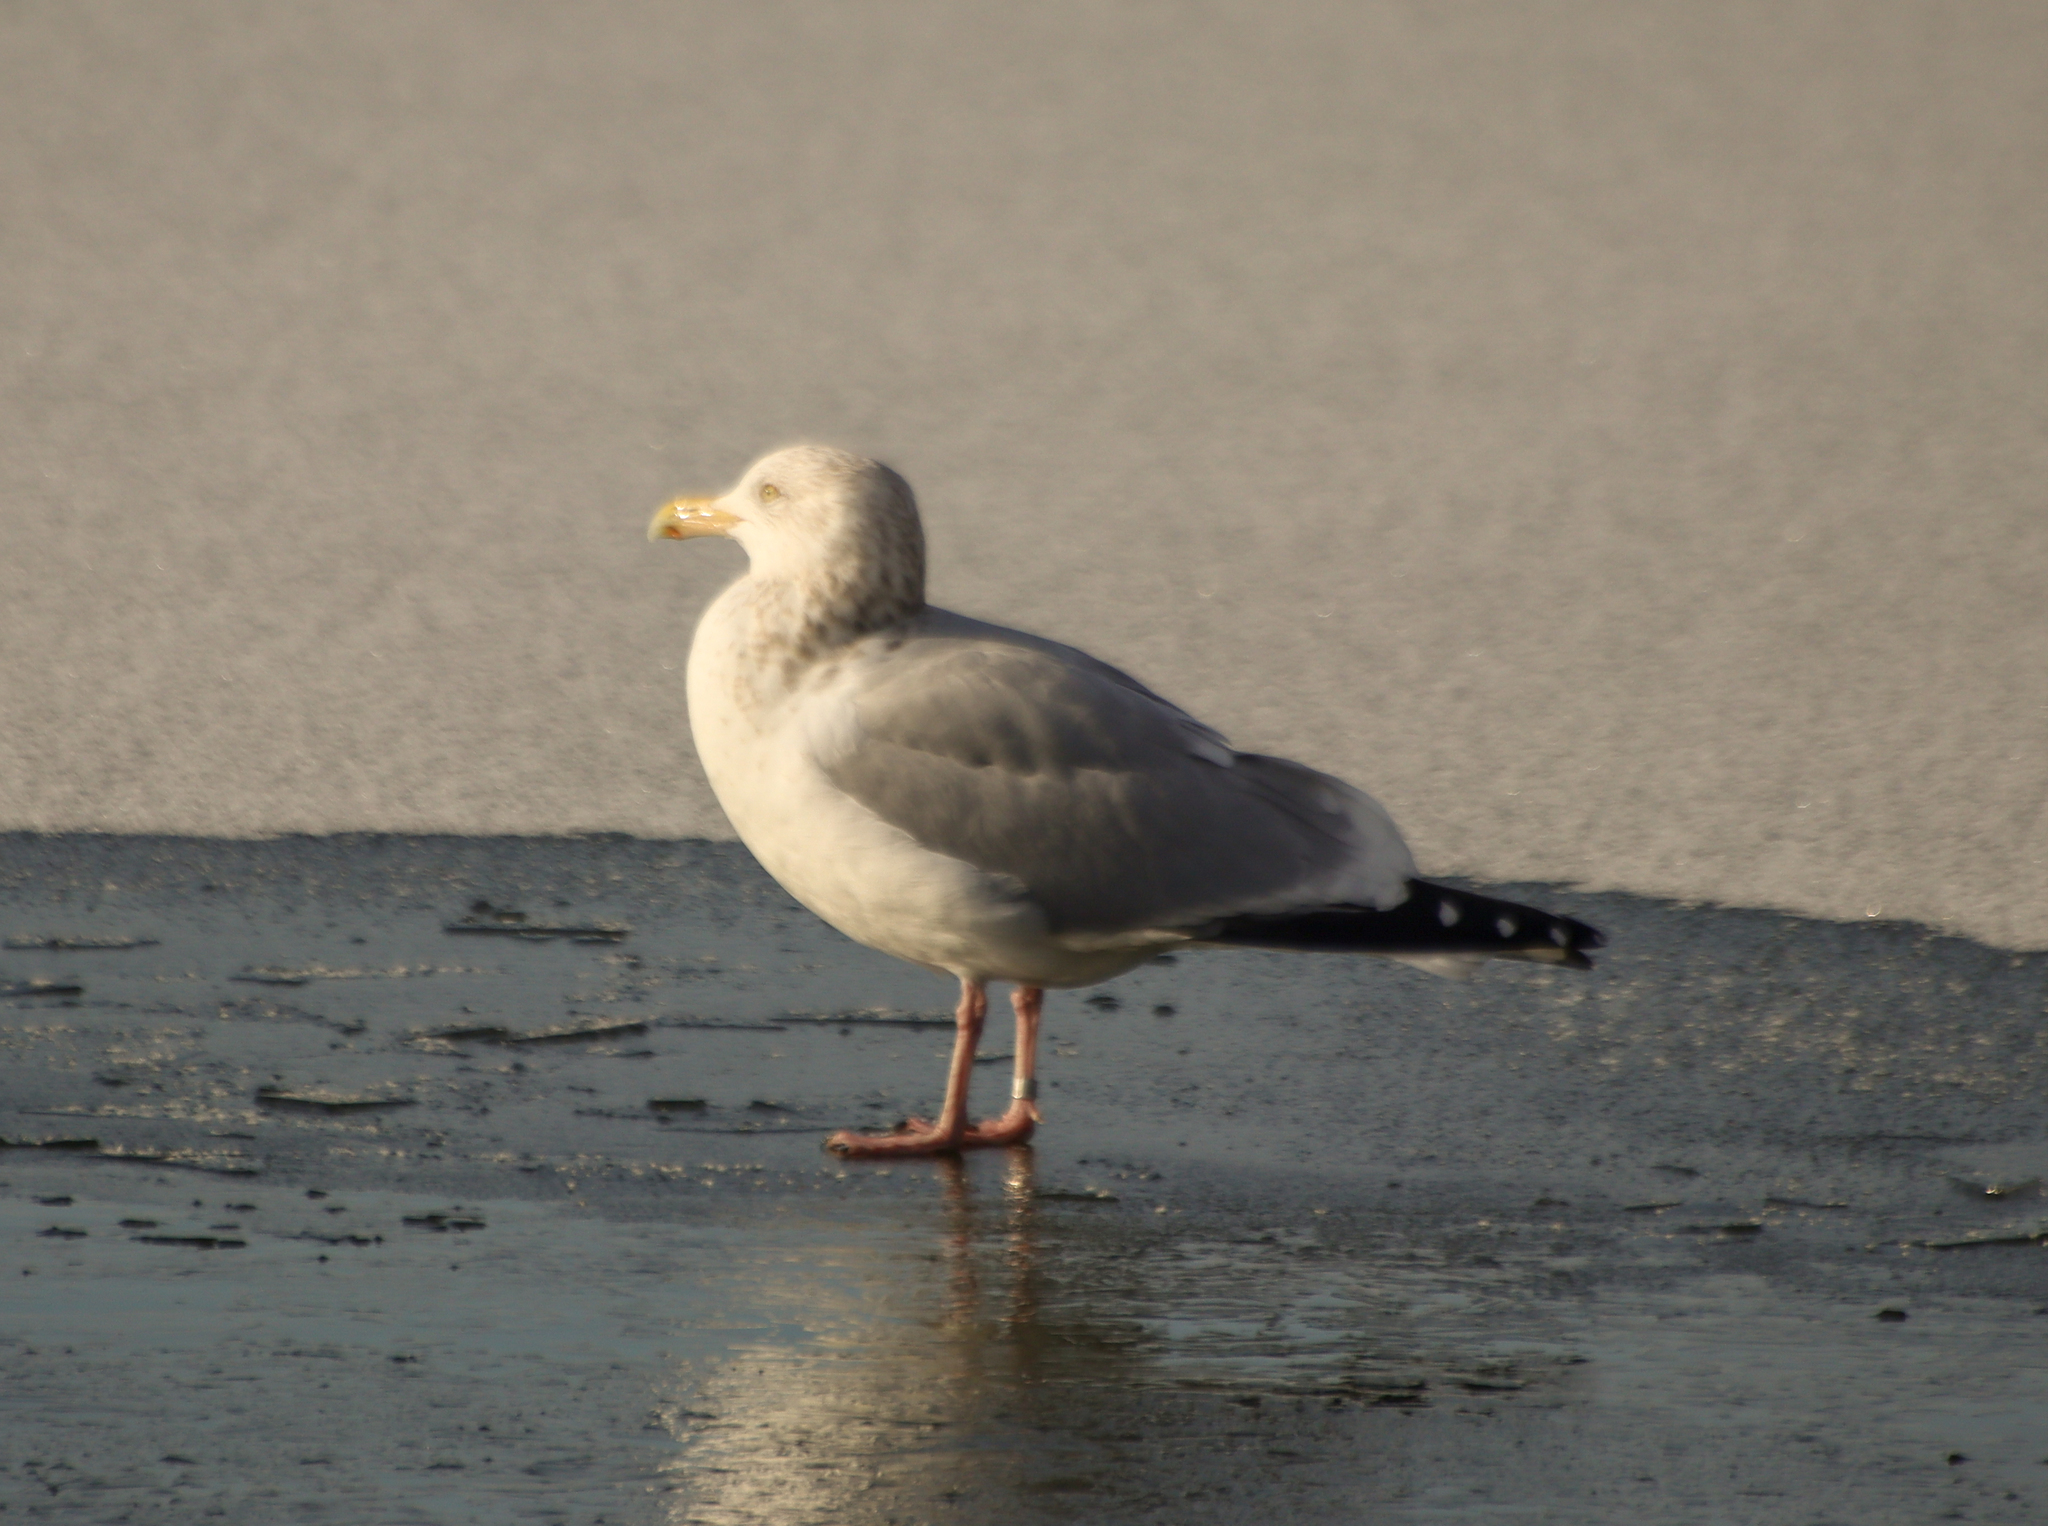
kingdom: Animalia
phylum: Chordata
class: Aves
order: Charadriiformes
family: Laridae
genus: Larus
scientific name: Larus argentatus
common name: Herring gull
